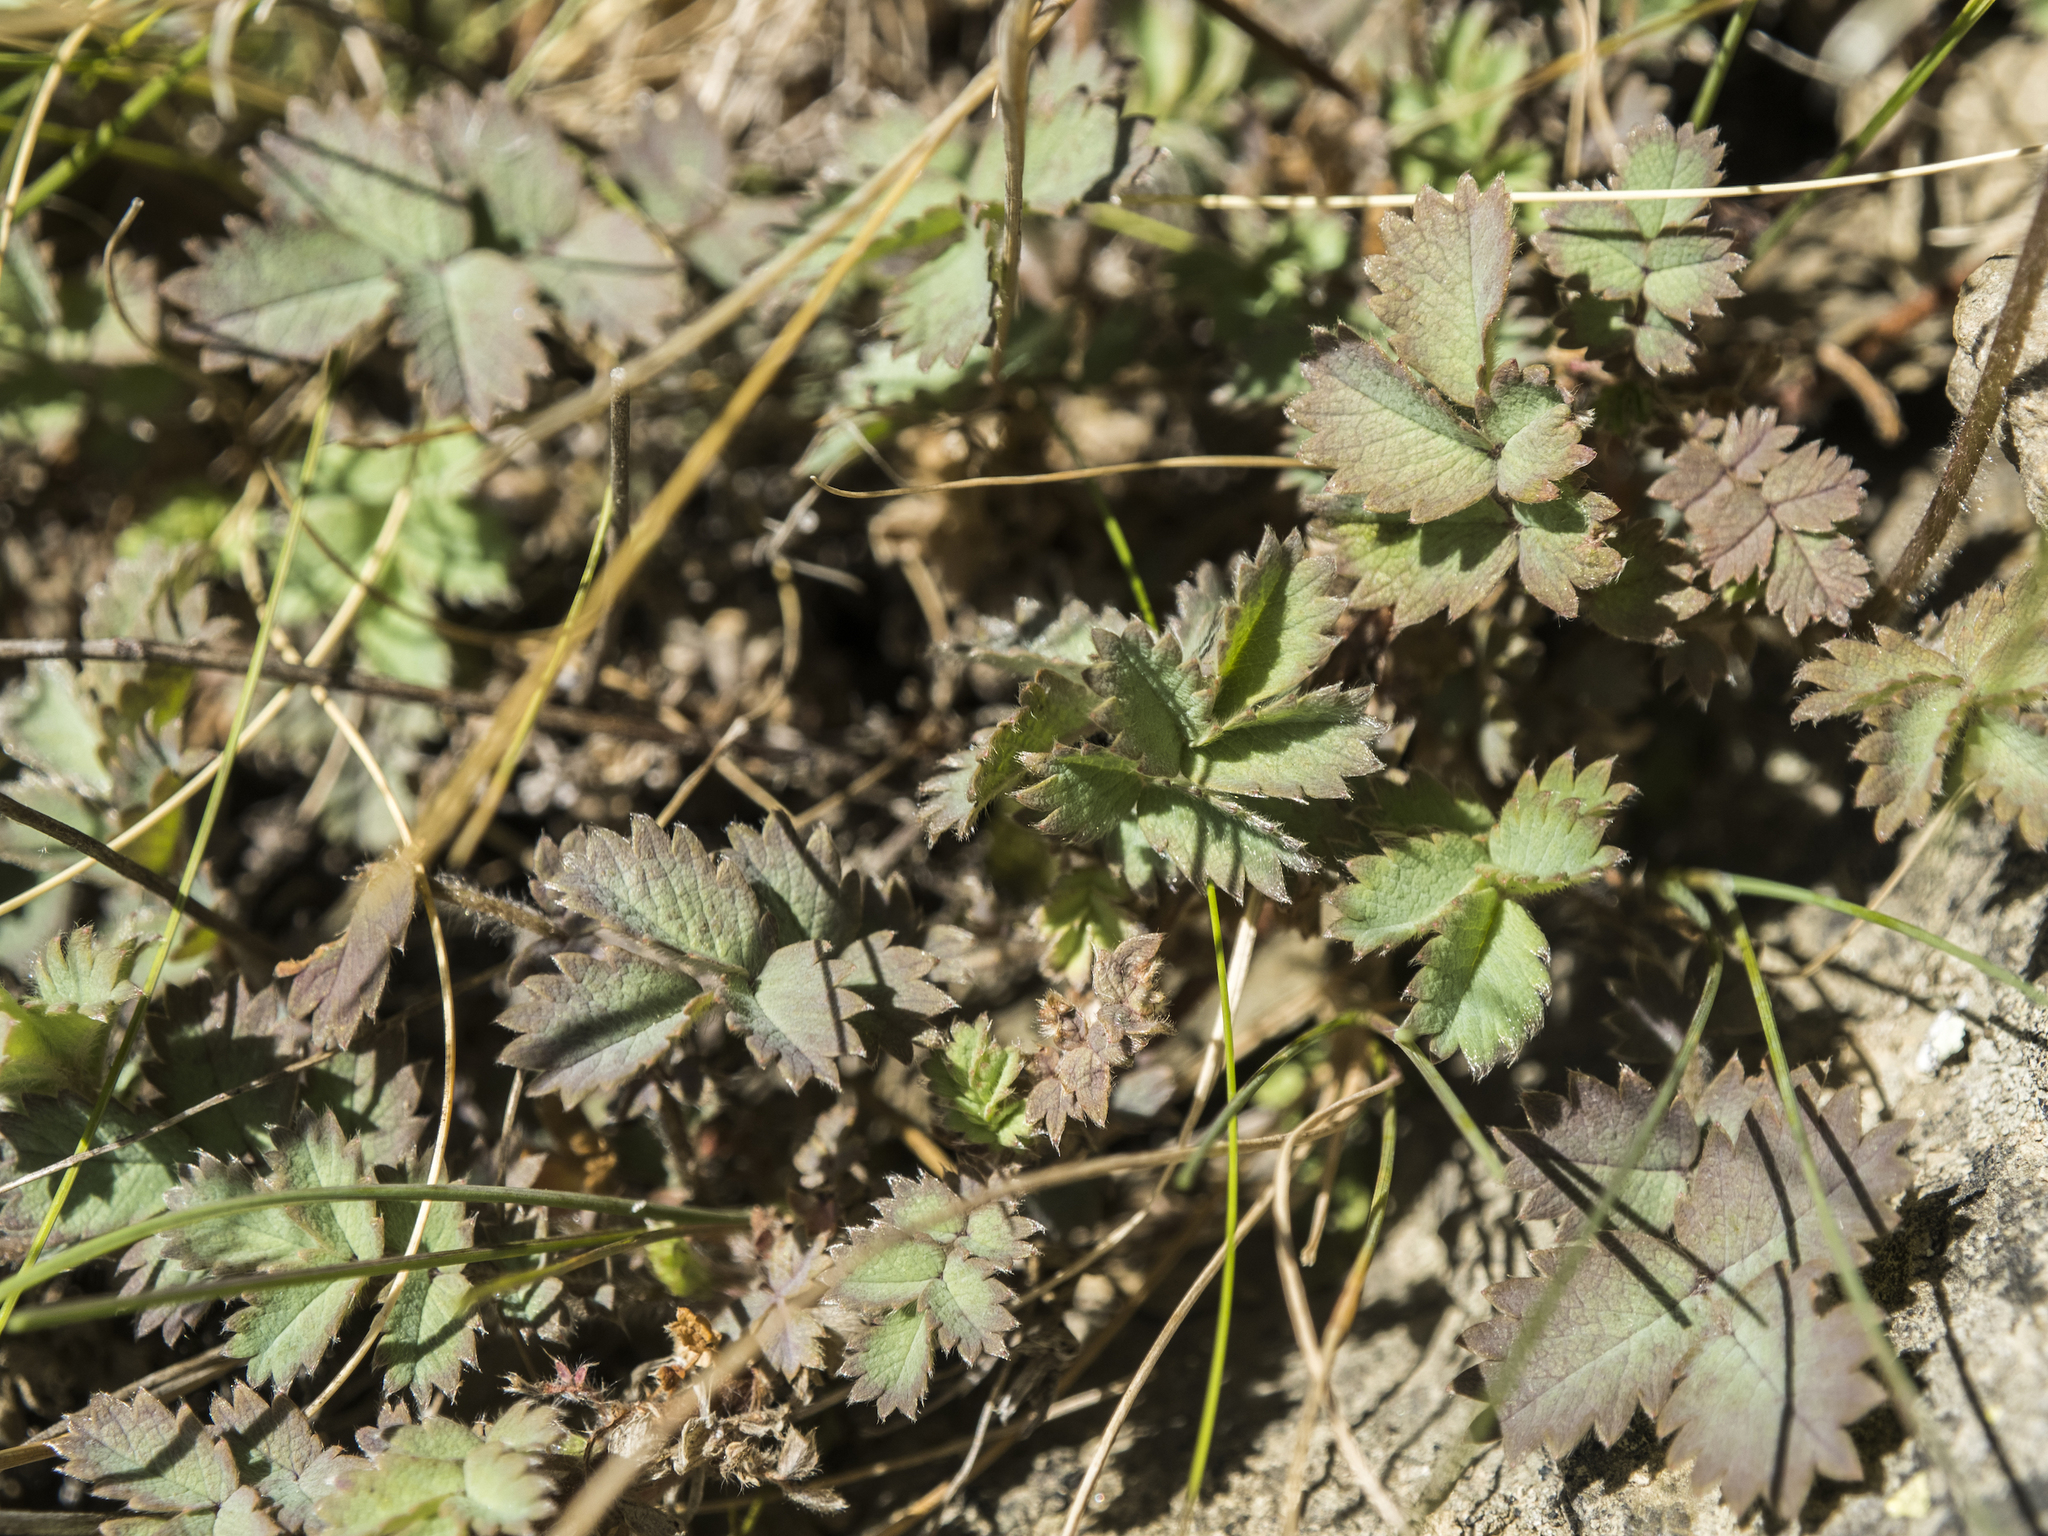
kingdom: Plantae
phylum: Tracheophyta
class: Magnoliopsida
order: Rosales
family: Rosaceae
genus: Acaena
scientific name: Acaena caesiiglauca
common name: Glaucous pirri-pirri-bur
